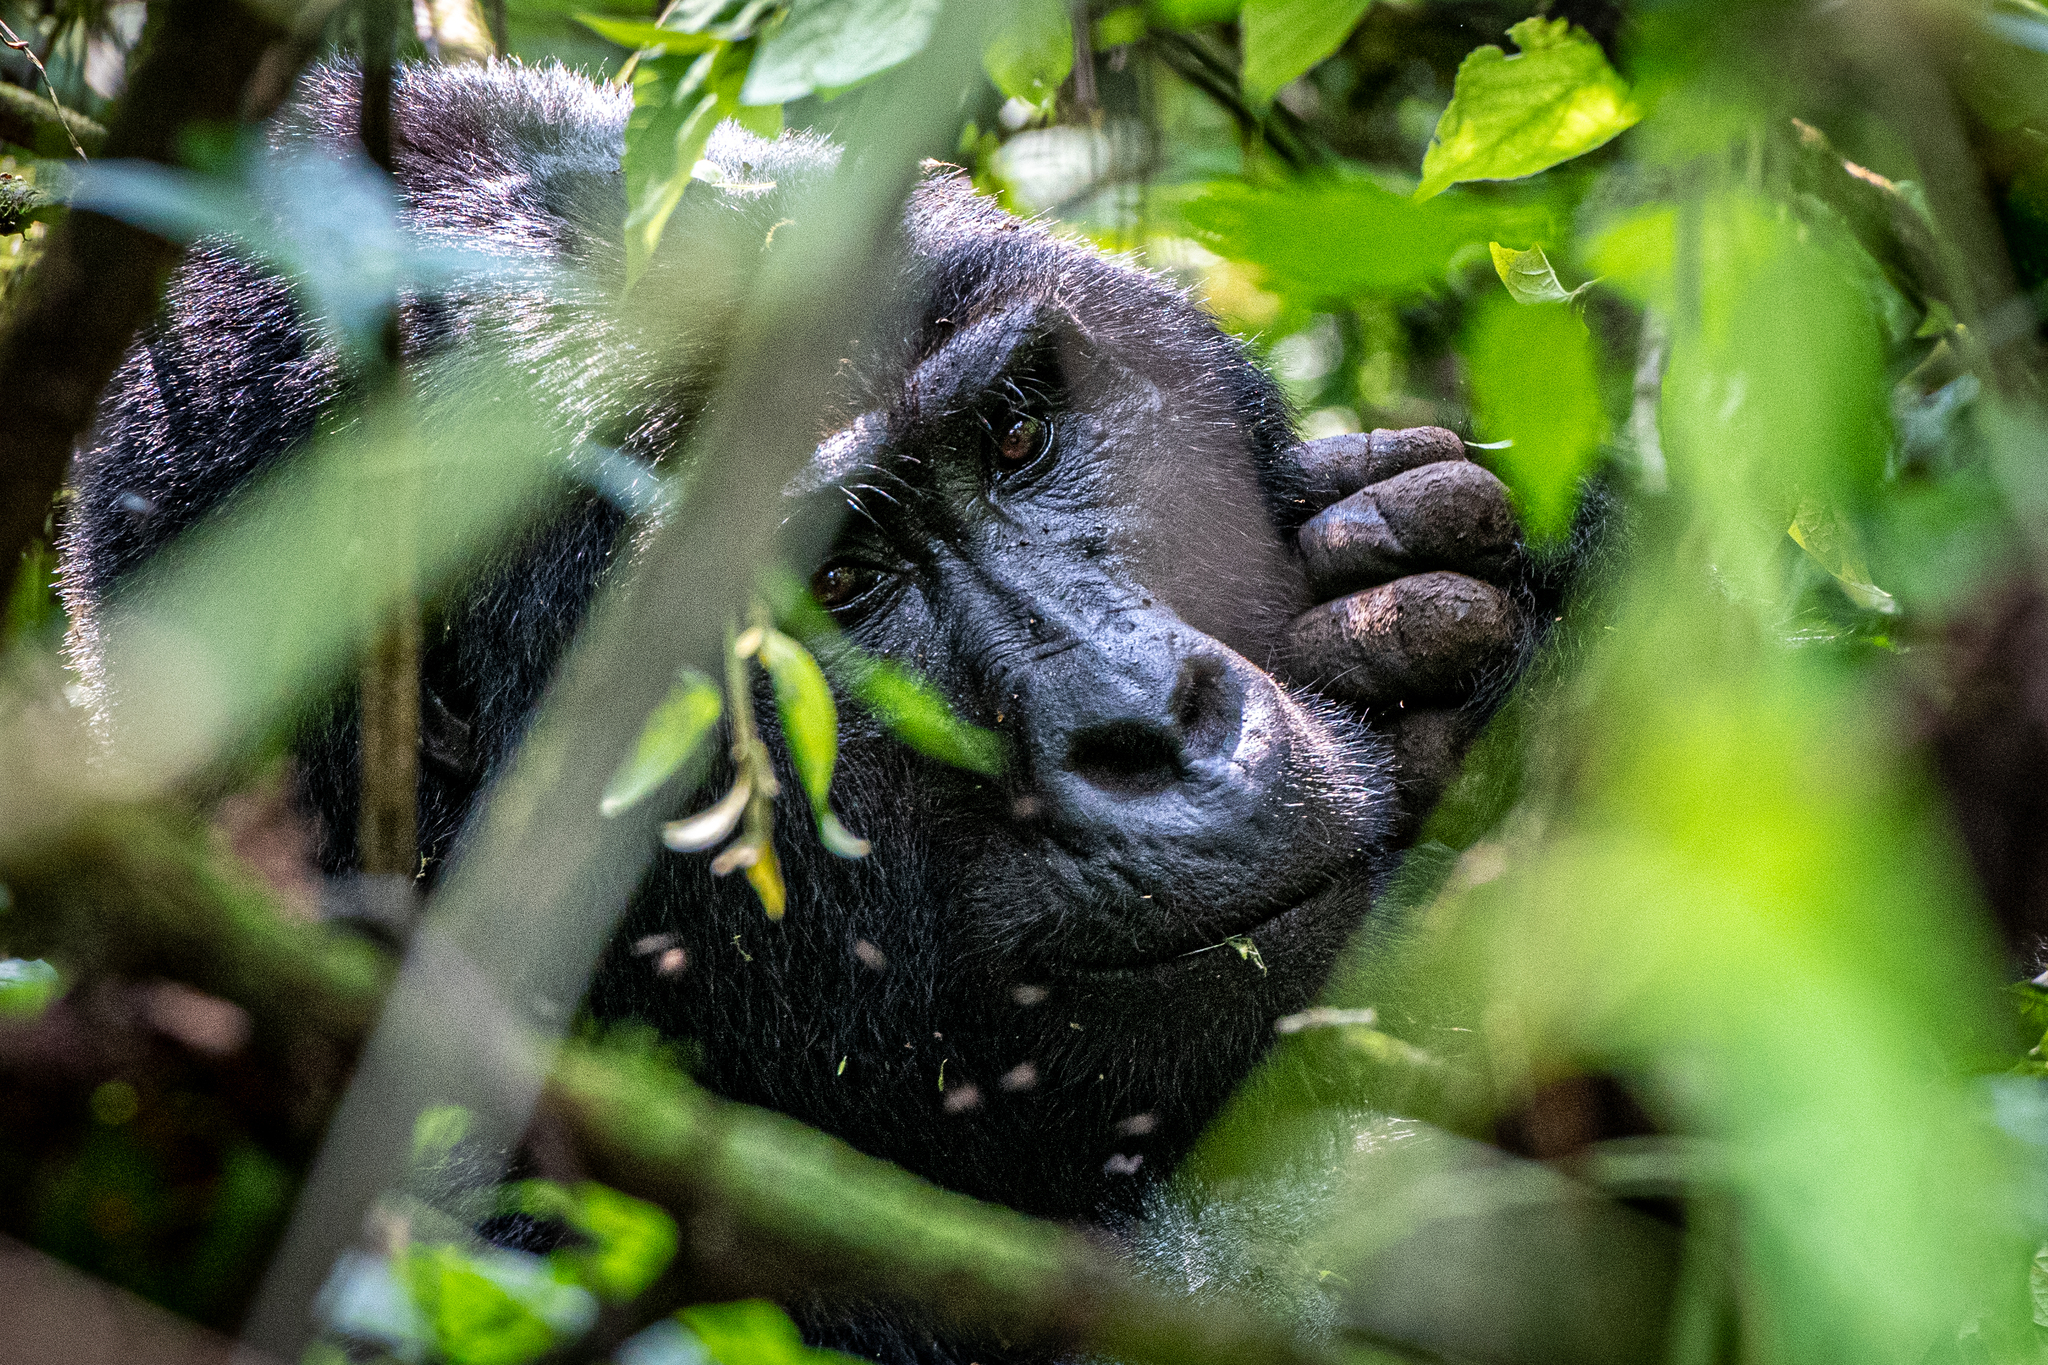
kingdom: Animalia
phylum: Chordata
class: Mammalia
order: Primates
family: Hominidae
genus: Gorilla
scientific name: Gorilla beringei
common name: Eastern gorilla
